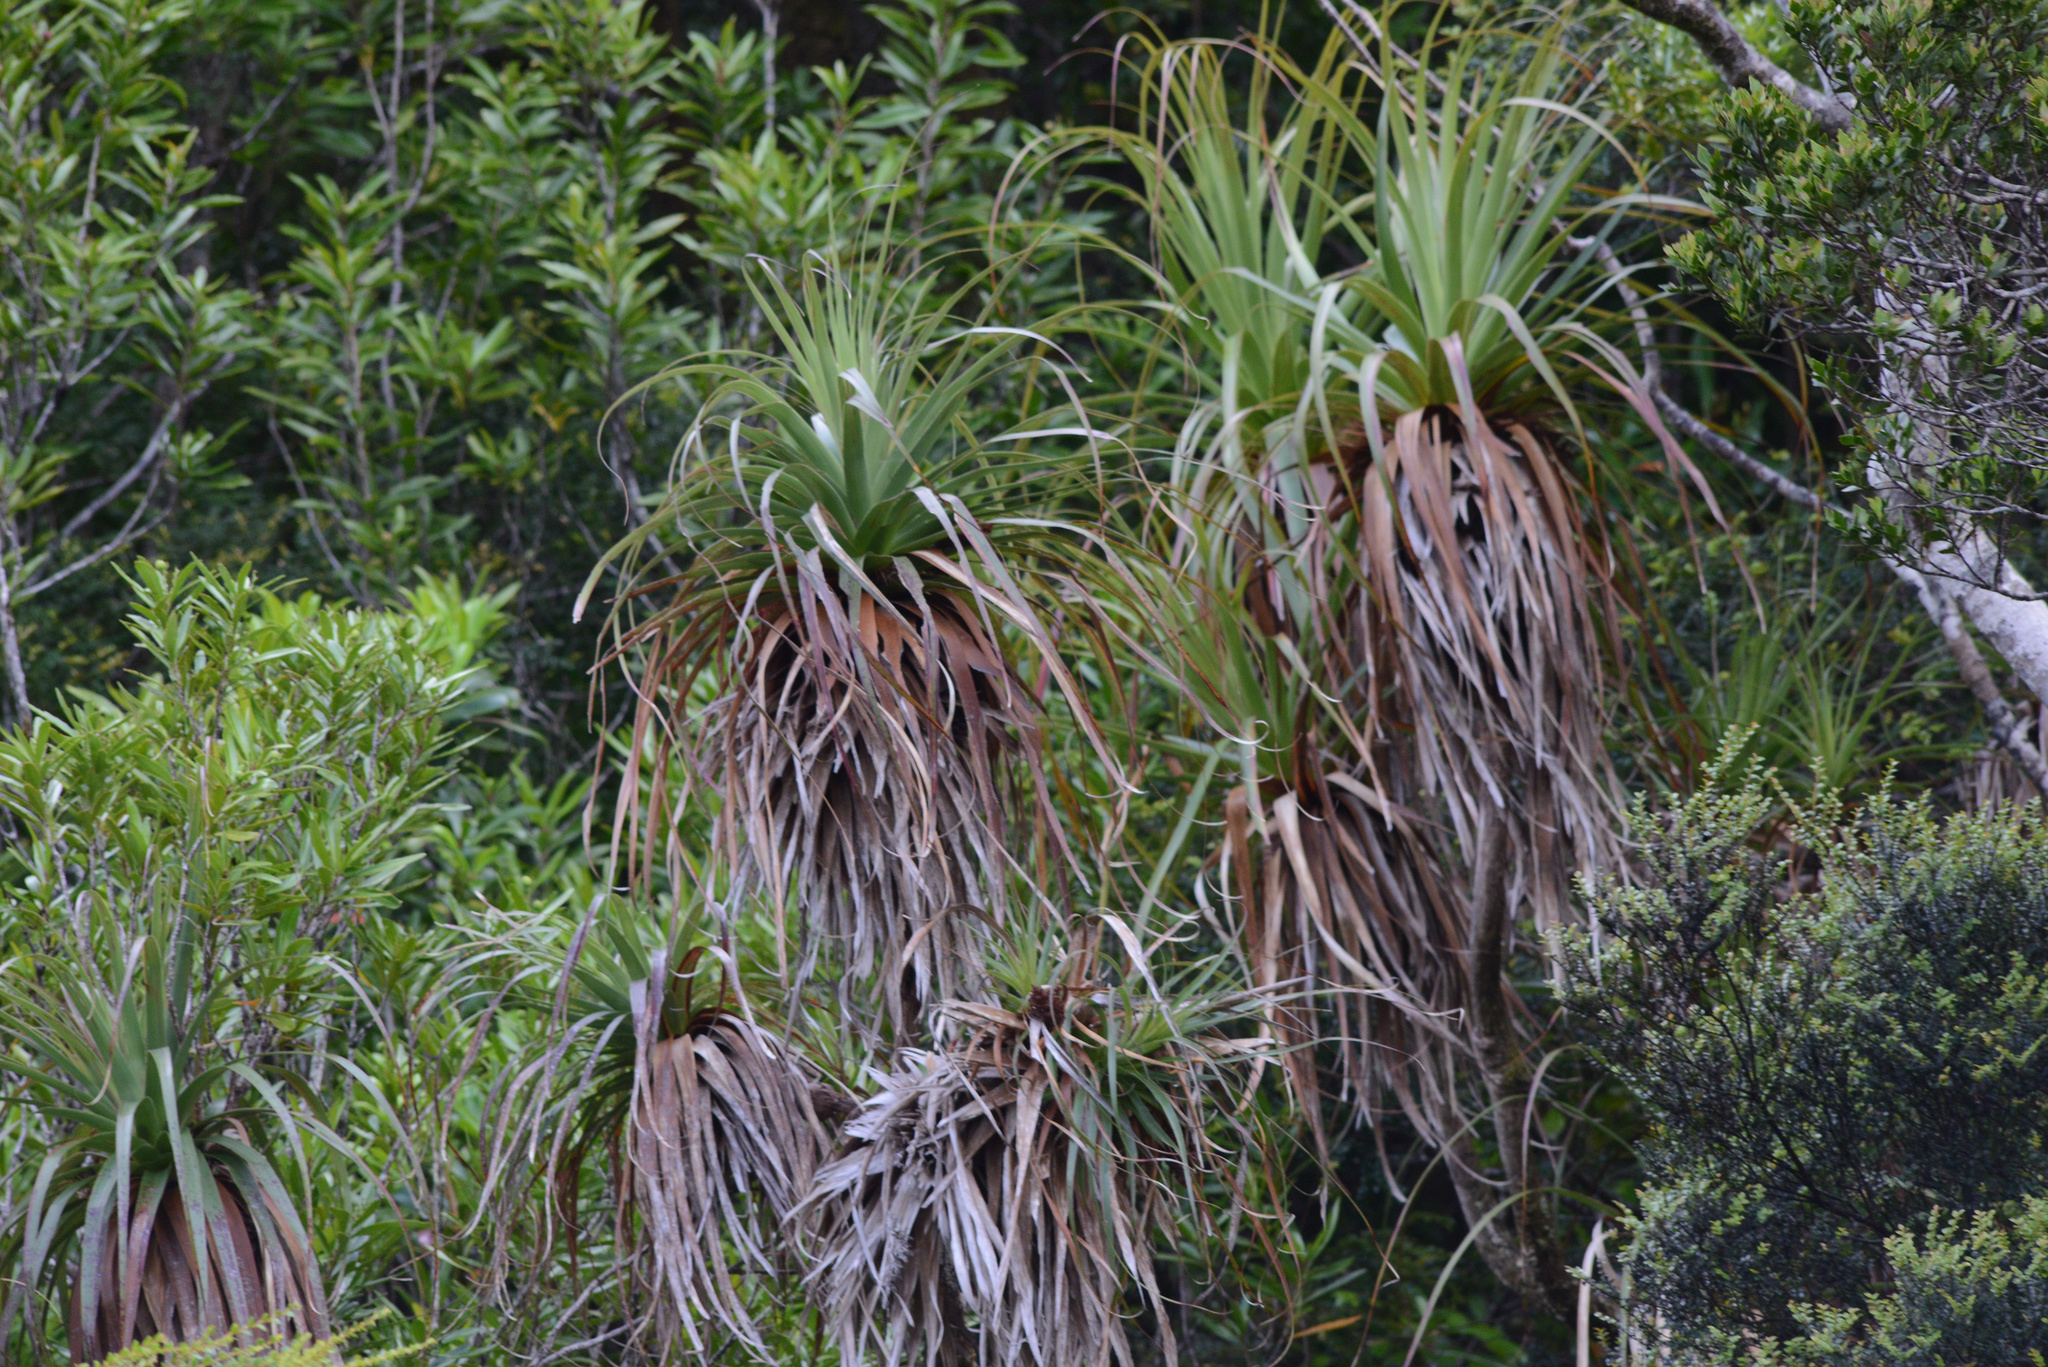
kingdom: Plantae
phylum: Tracheophyta
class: Magnoliopsida
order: Ericales
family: Ericaceae
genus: Dracophyllum
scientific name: Dracophyllum pandanifolium
